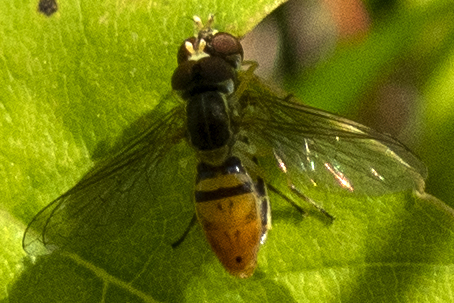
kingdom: Animalia
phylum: Arthropoda
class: Insecta
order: Diptera
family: Syrphidae
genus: Toxomerus
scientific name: Toxomerus marginatus
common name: Syrphid fly
